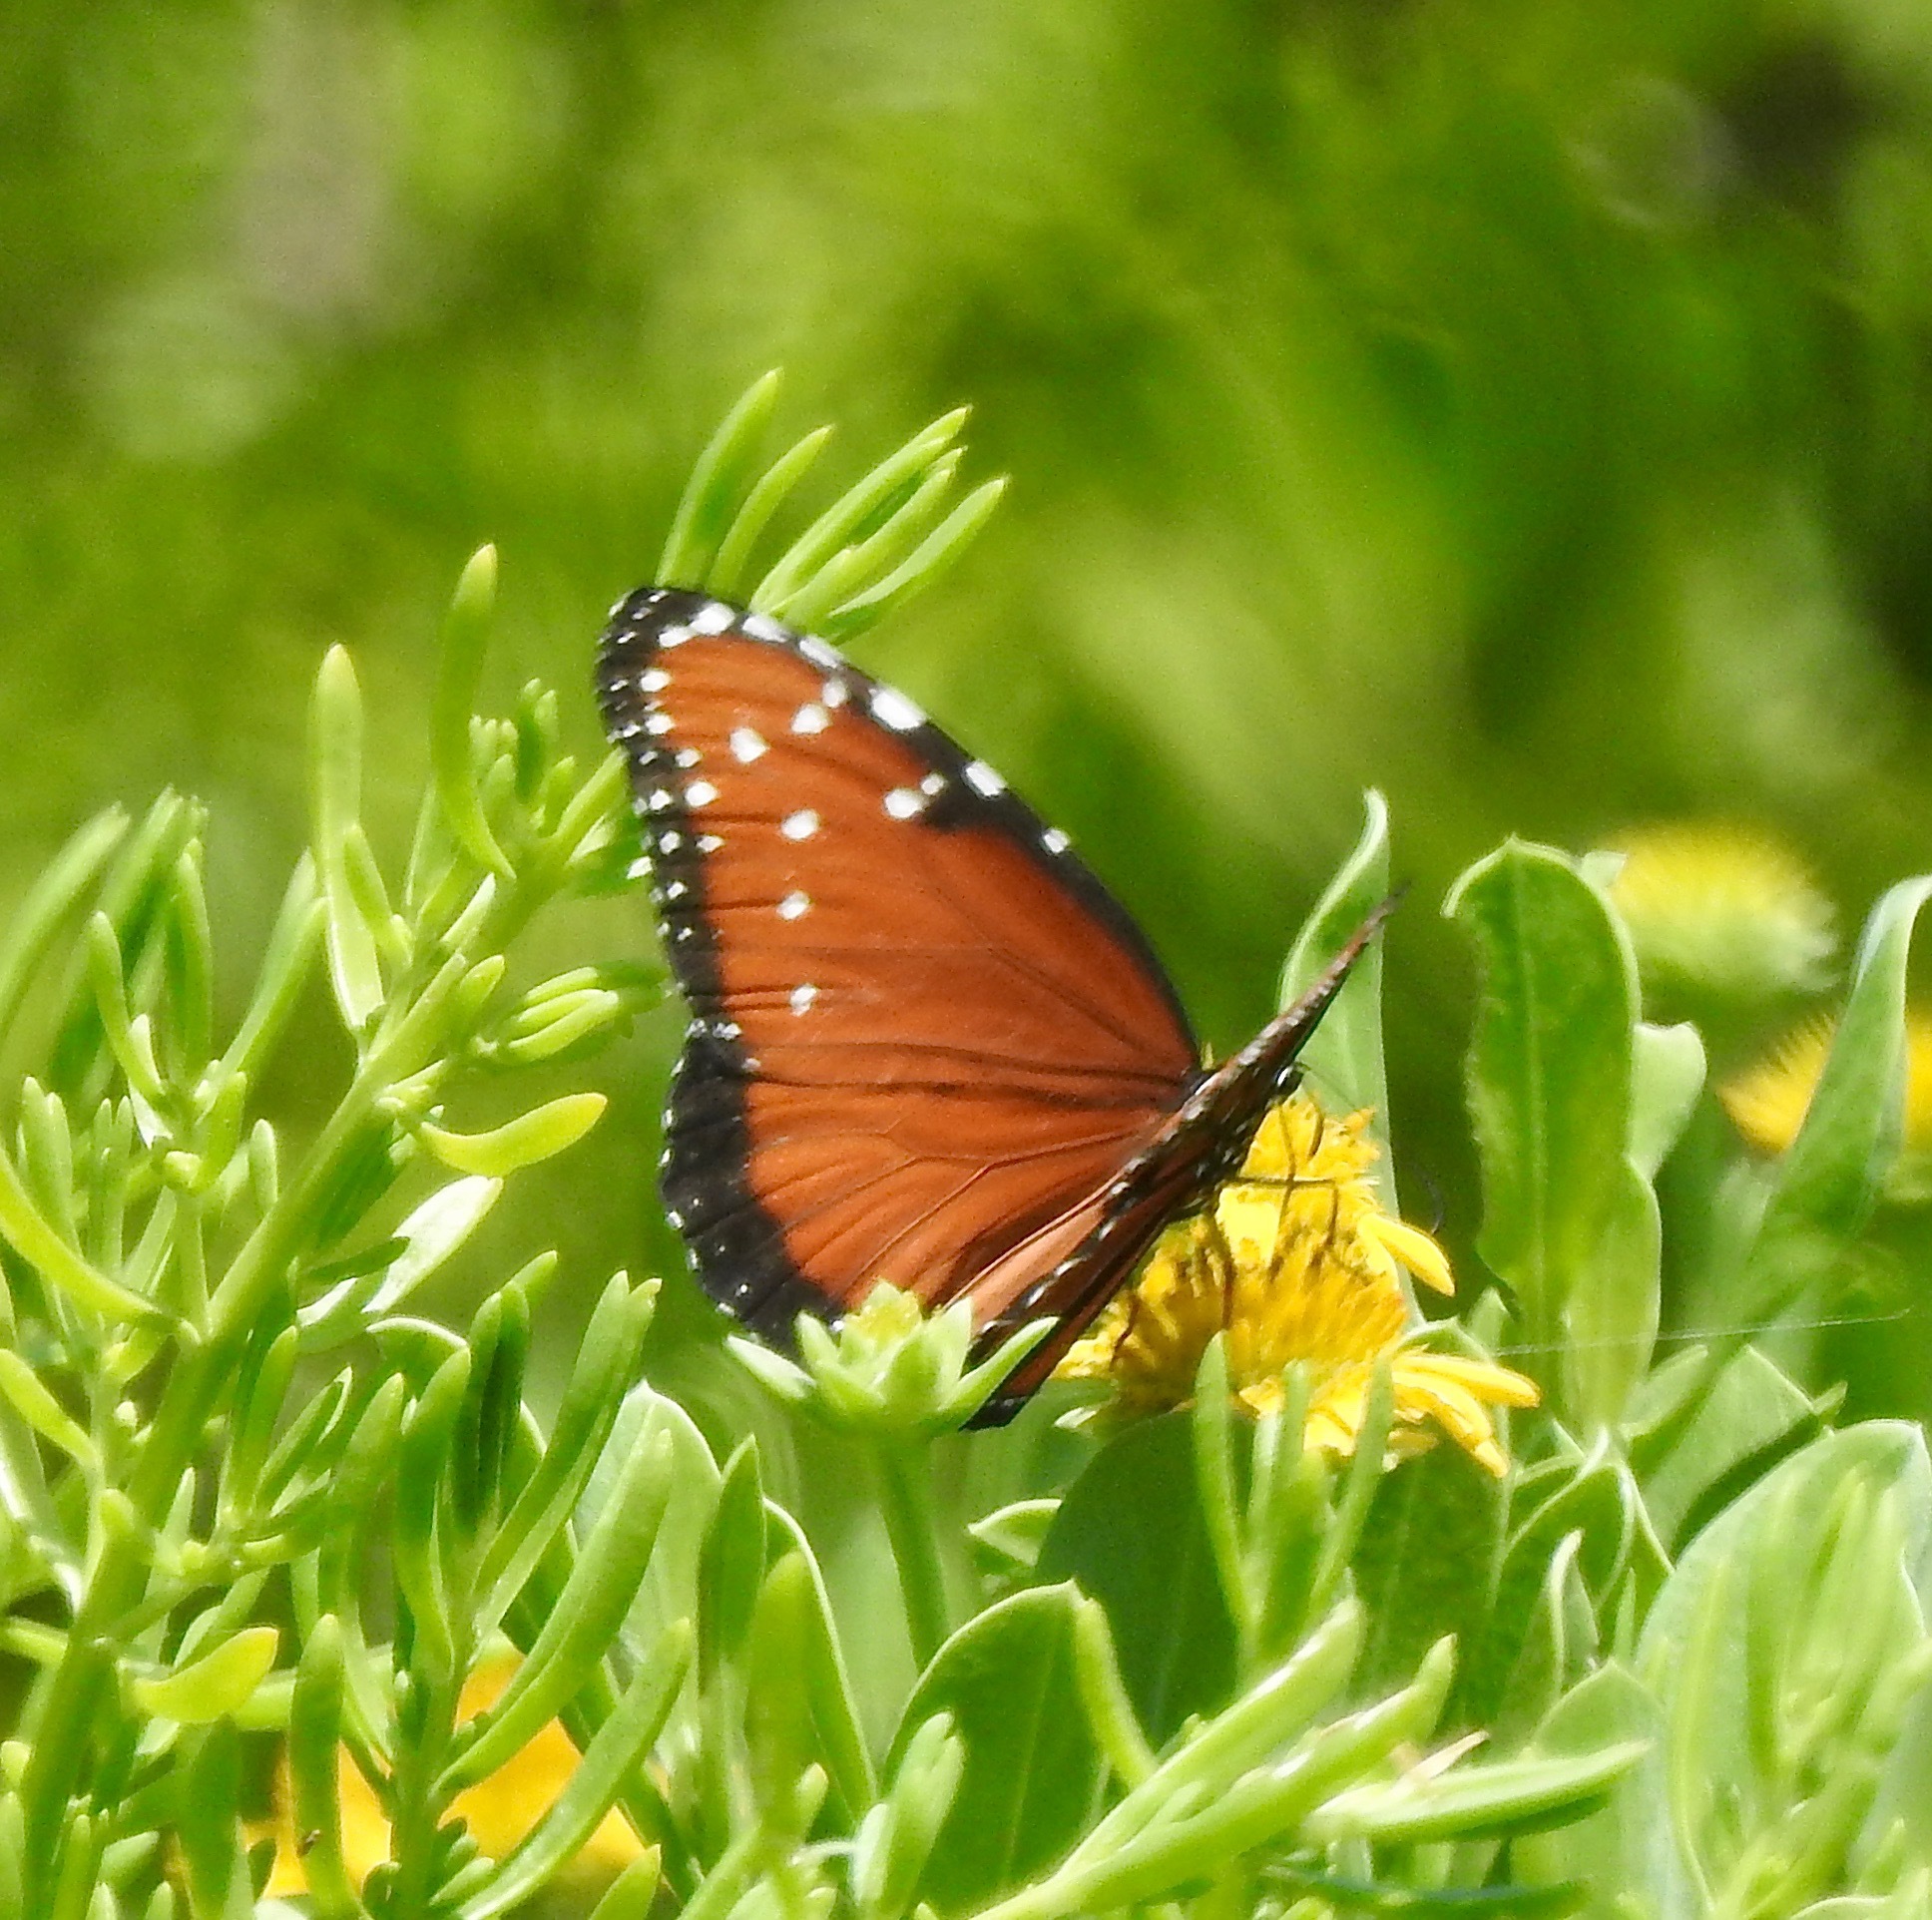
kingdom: Animalia
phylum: Arthropoda
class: Insecta
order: Lepidoptera
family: Nymphalidae
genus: Danaus
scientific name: Danaus gilippus
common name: Queen
